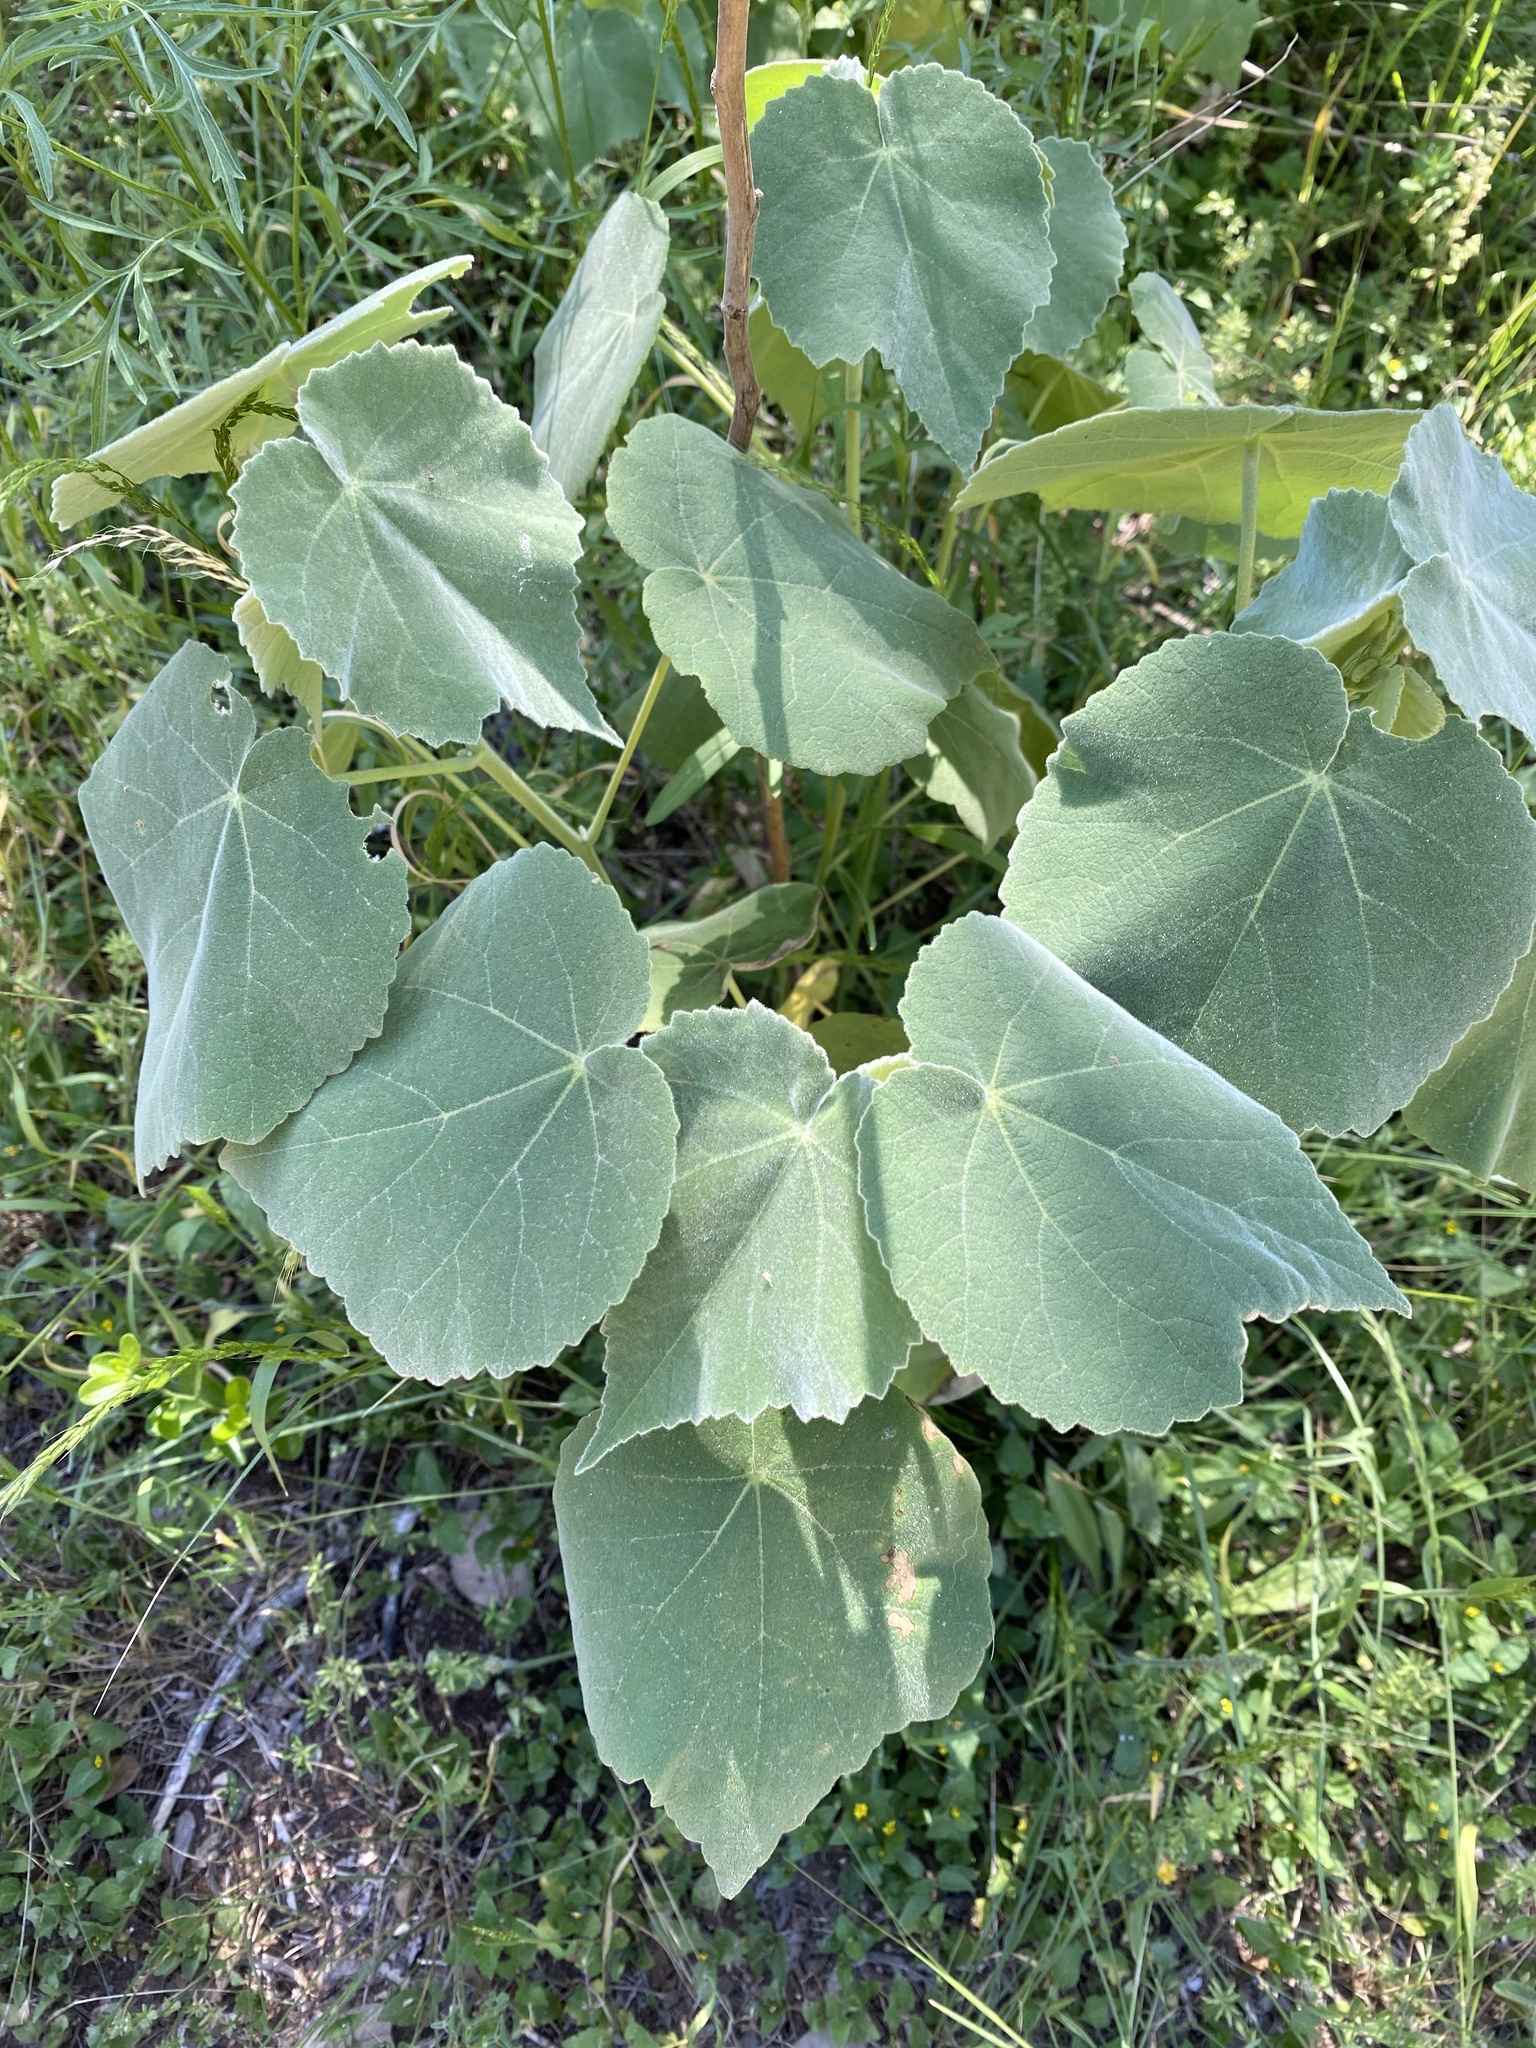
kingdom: Plantae
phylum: Tracheophyta
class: Magnoliopsida
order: Malvales
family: Malvaceae
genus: Allowissadula
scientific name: Allowissadula holosericea
